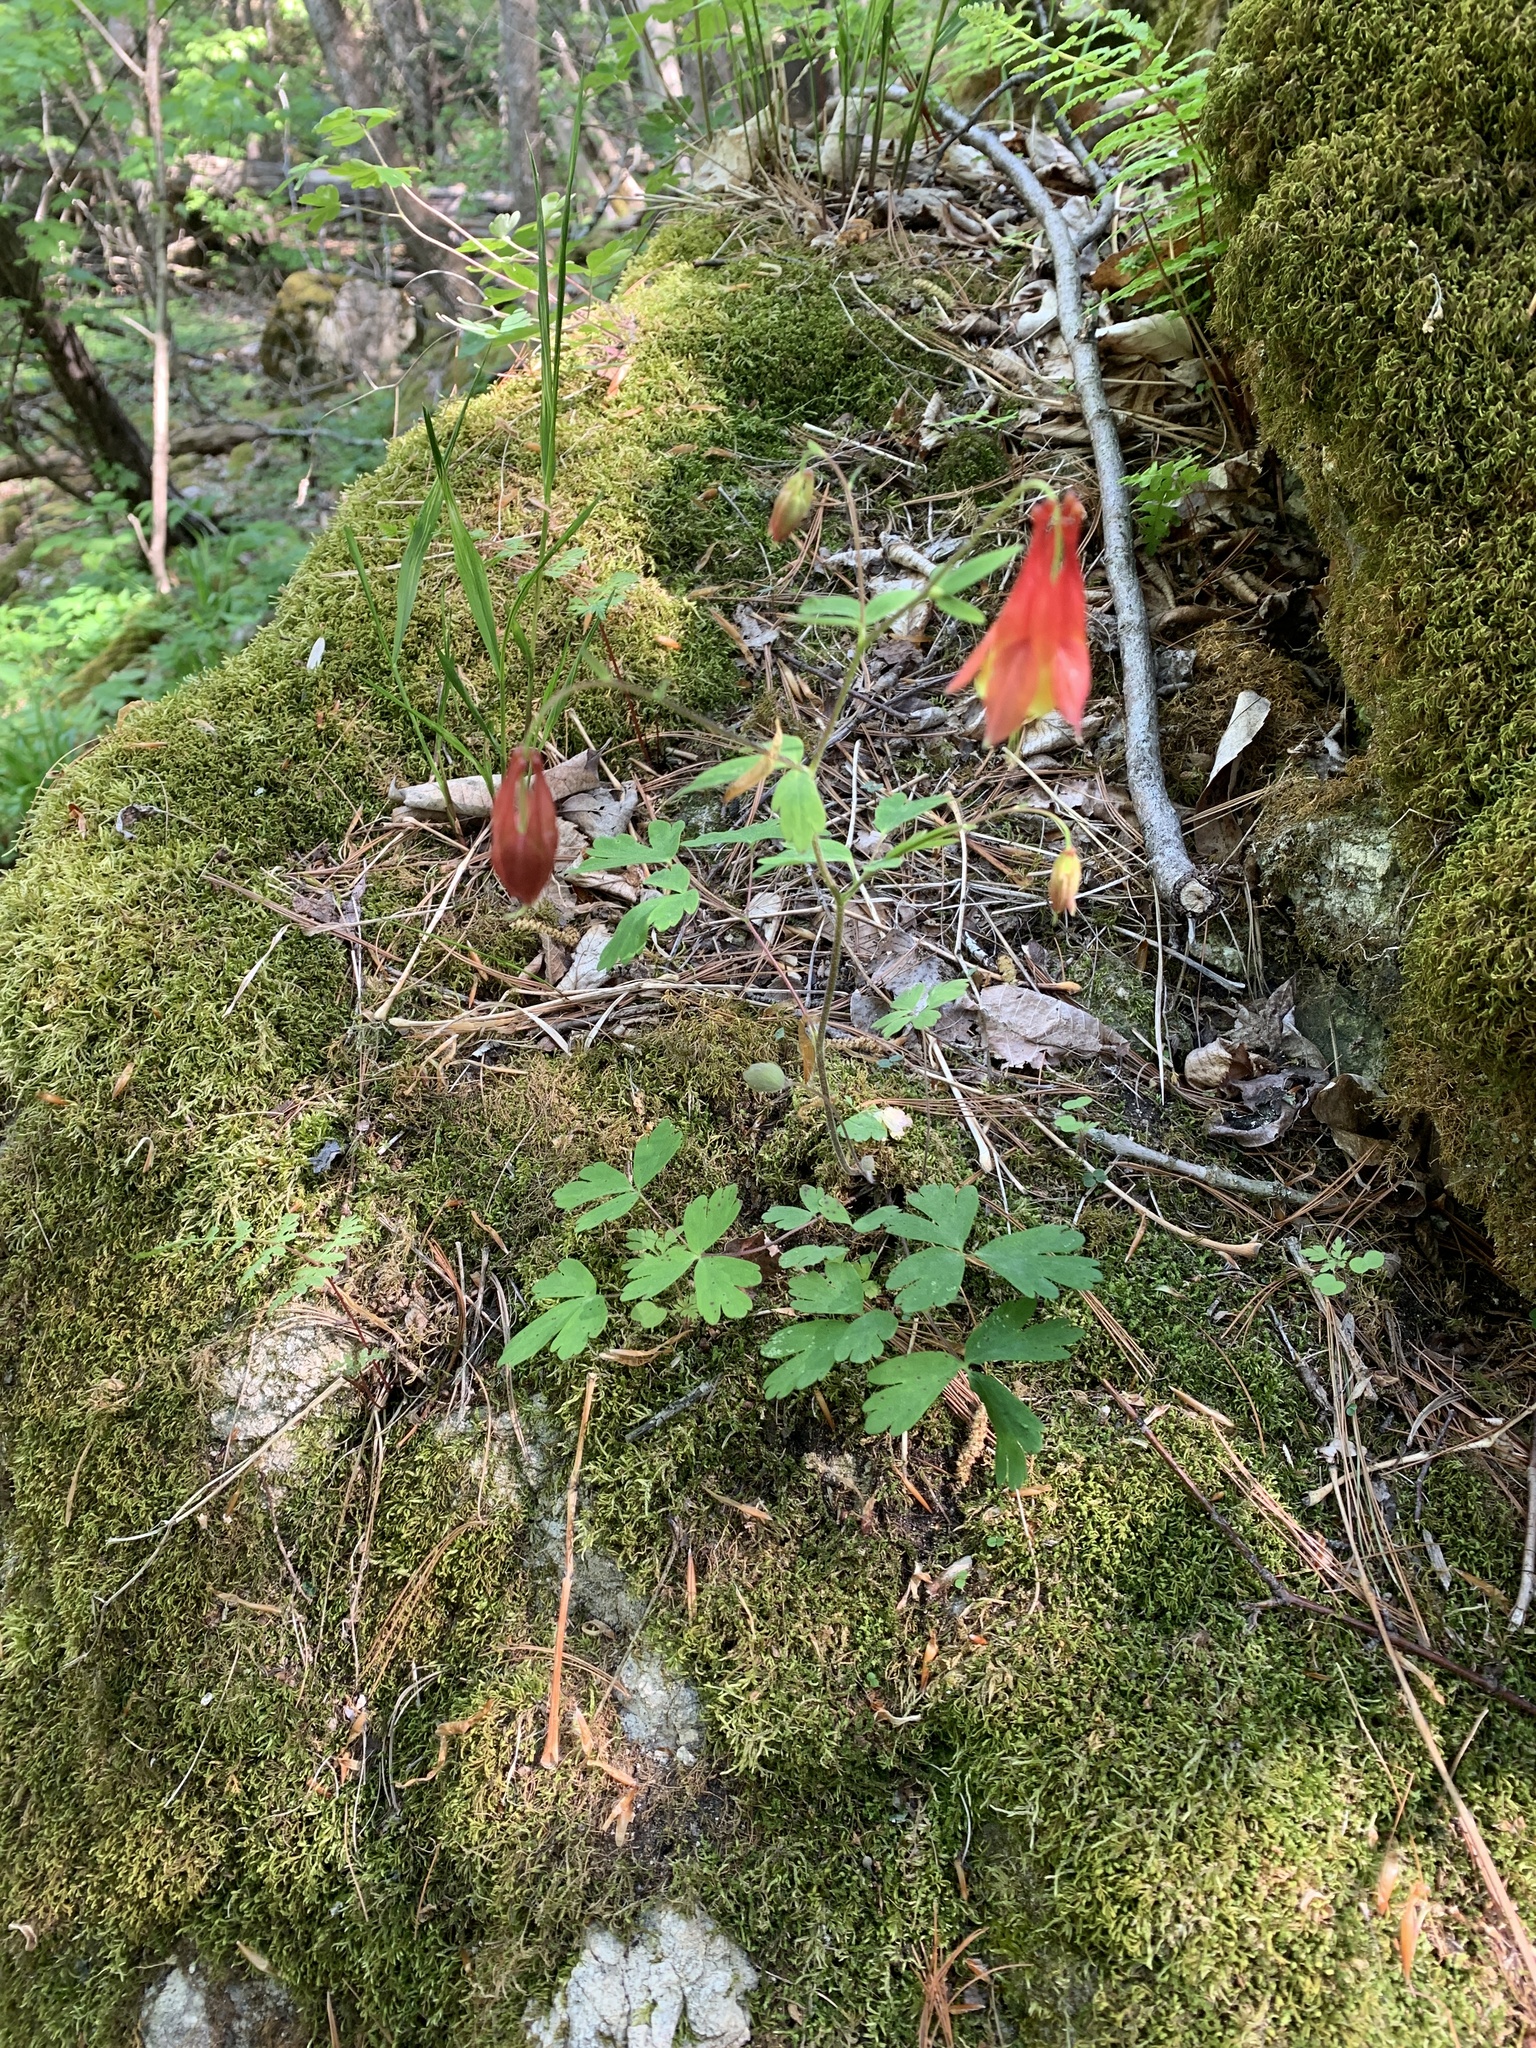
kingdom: Plantae
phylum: Tracheophyta
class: Magnoliopsida
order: Ranunculales
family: Ranunculaceae
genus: Aquilegia
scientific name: Aquilegia canadensis
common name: American columbine
